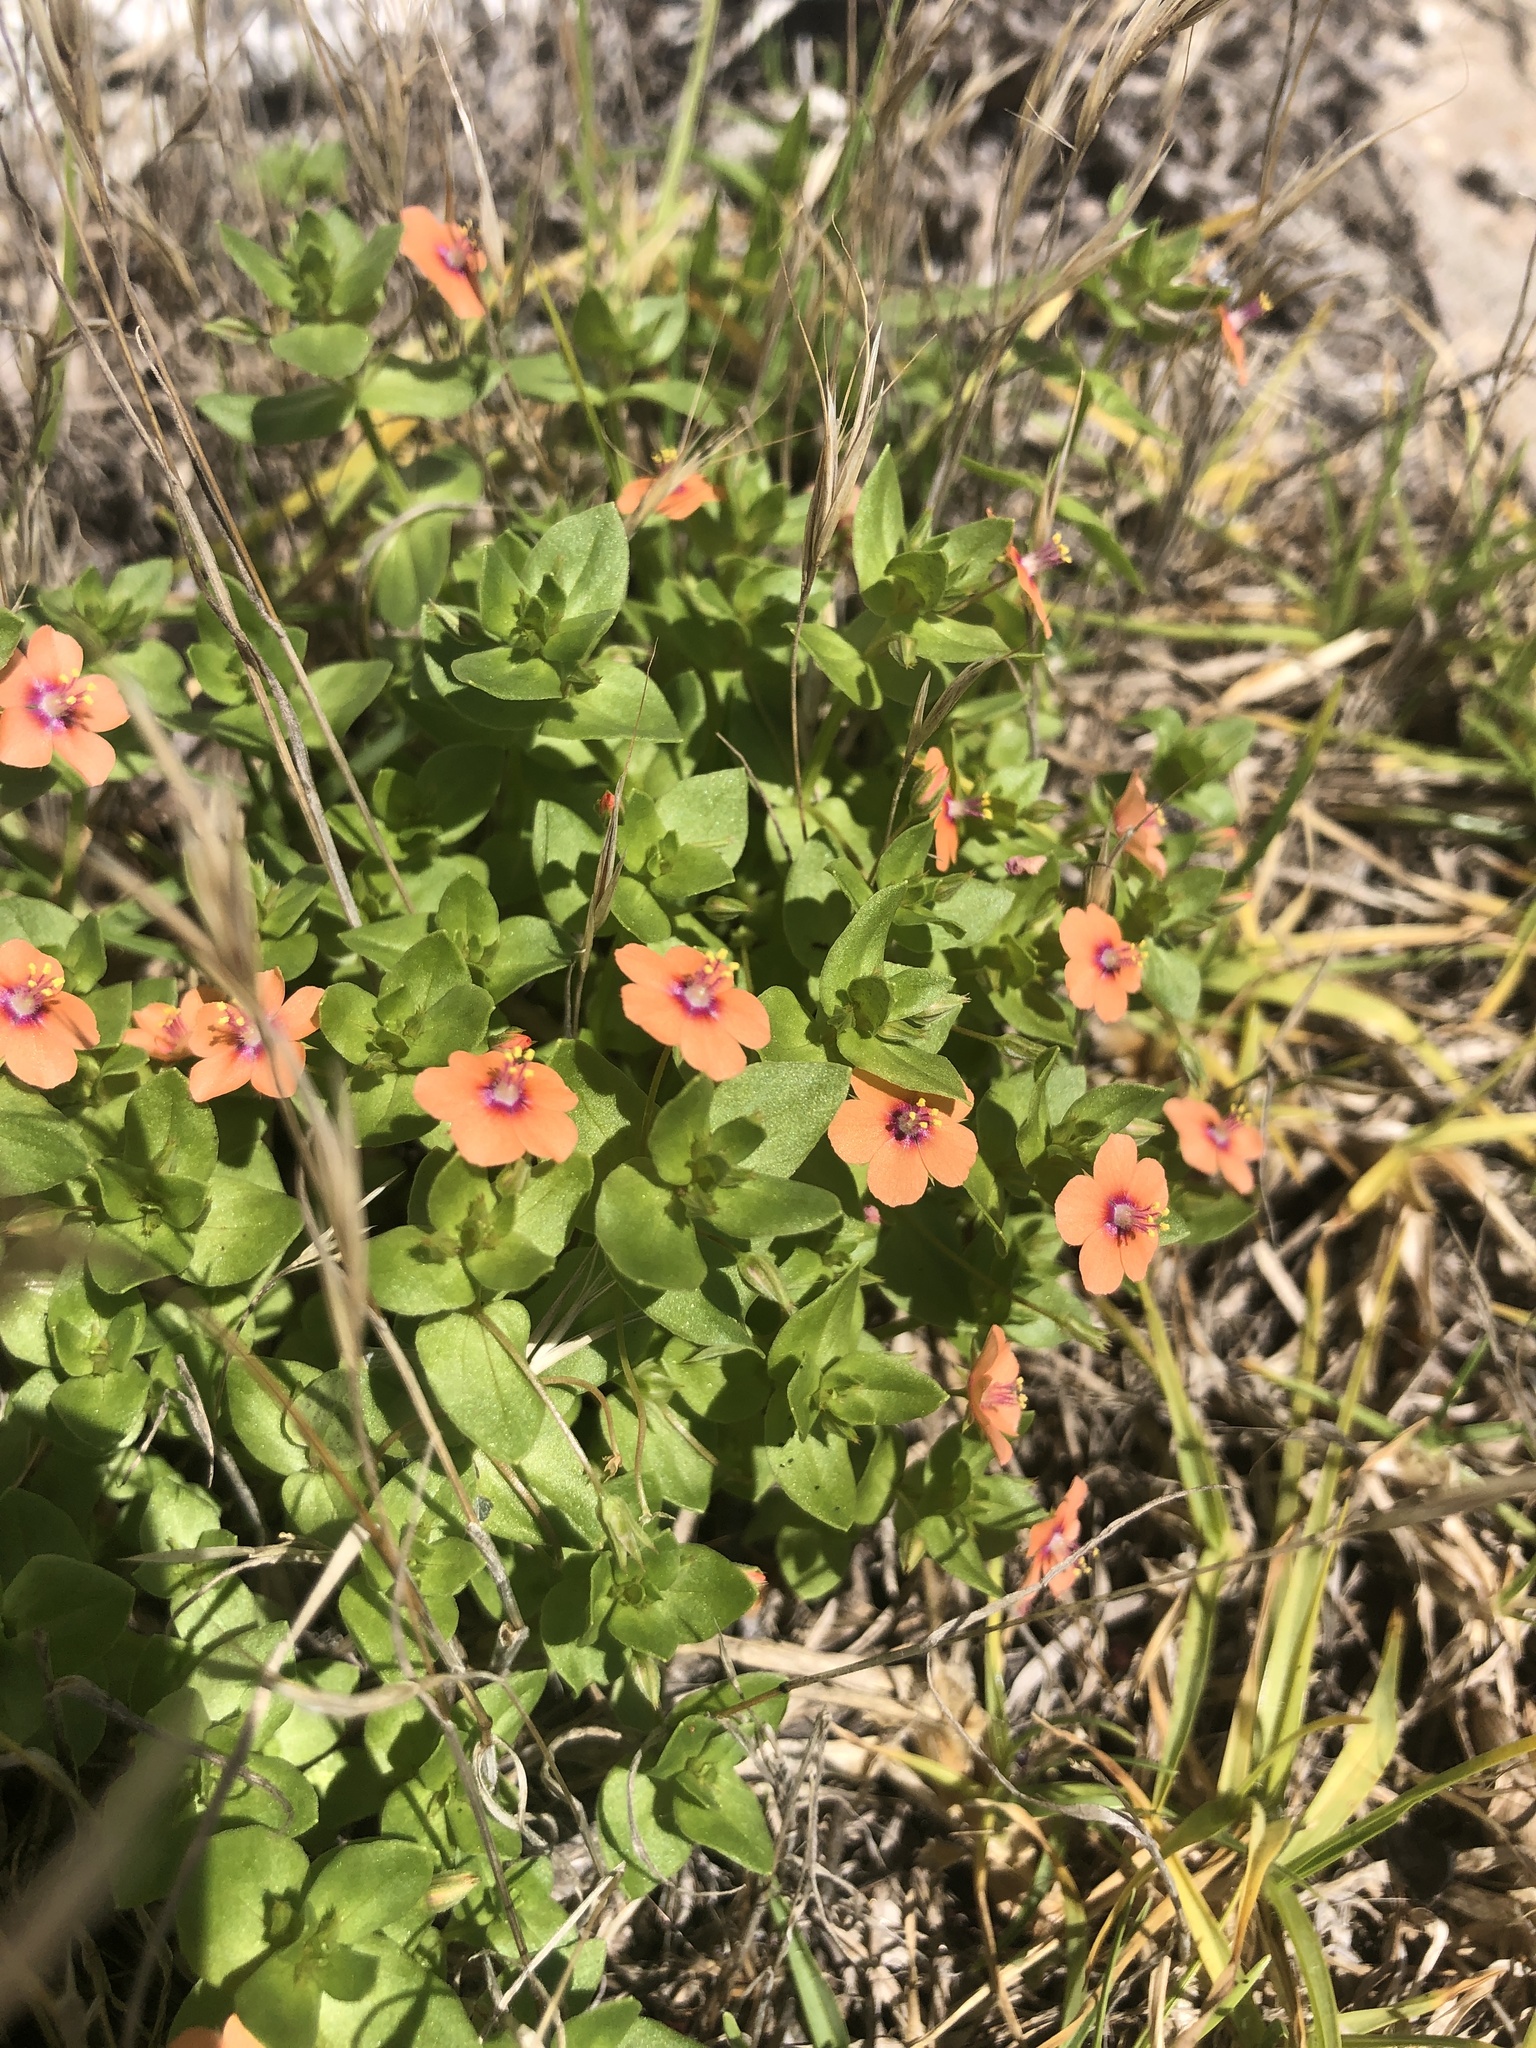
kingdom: Plantae
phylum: Tracheophyta
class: Magnoliopsida
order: Ericales
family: Primulaceae
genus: Lysimachia
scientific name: Lysimachia arvensis
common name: Scarlet pimpernel
